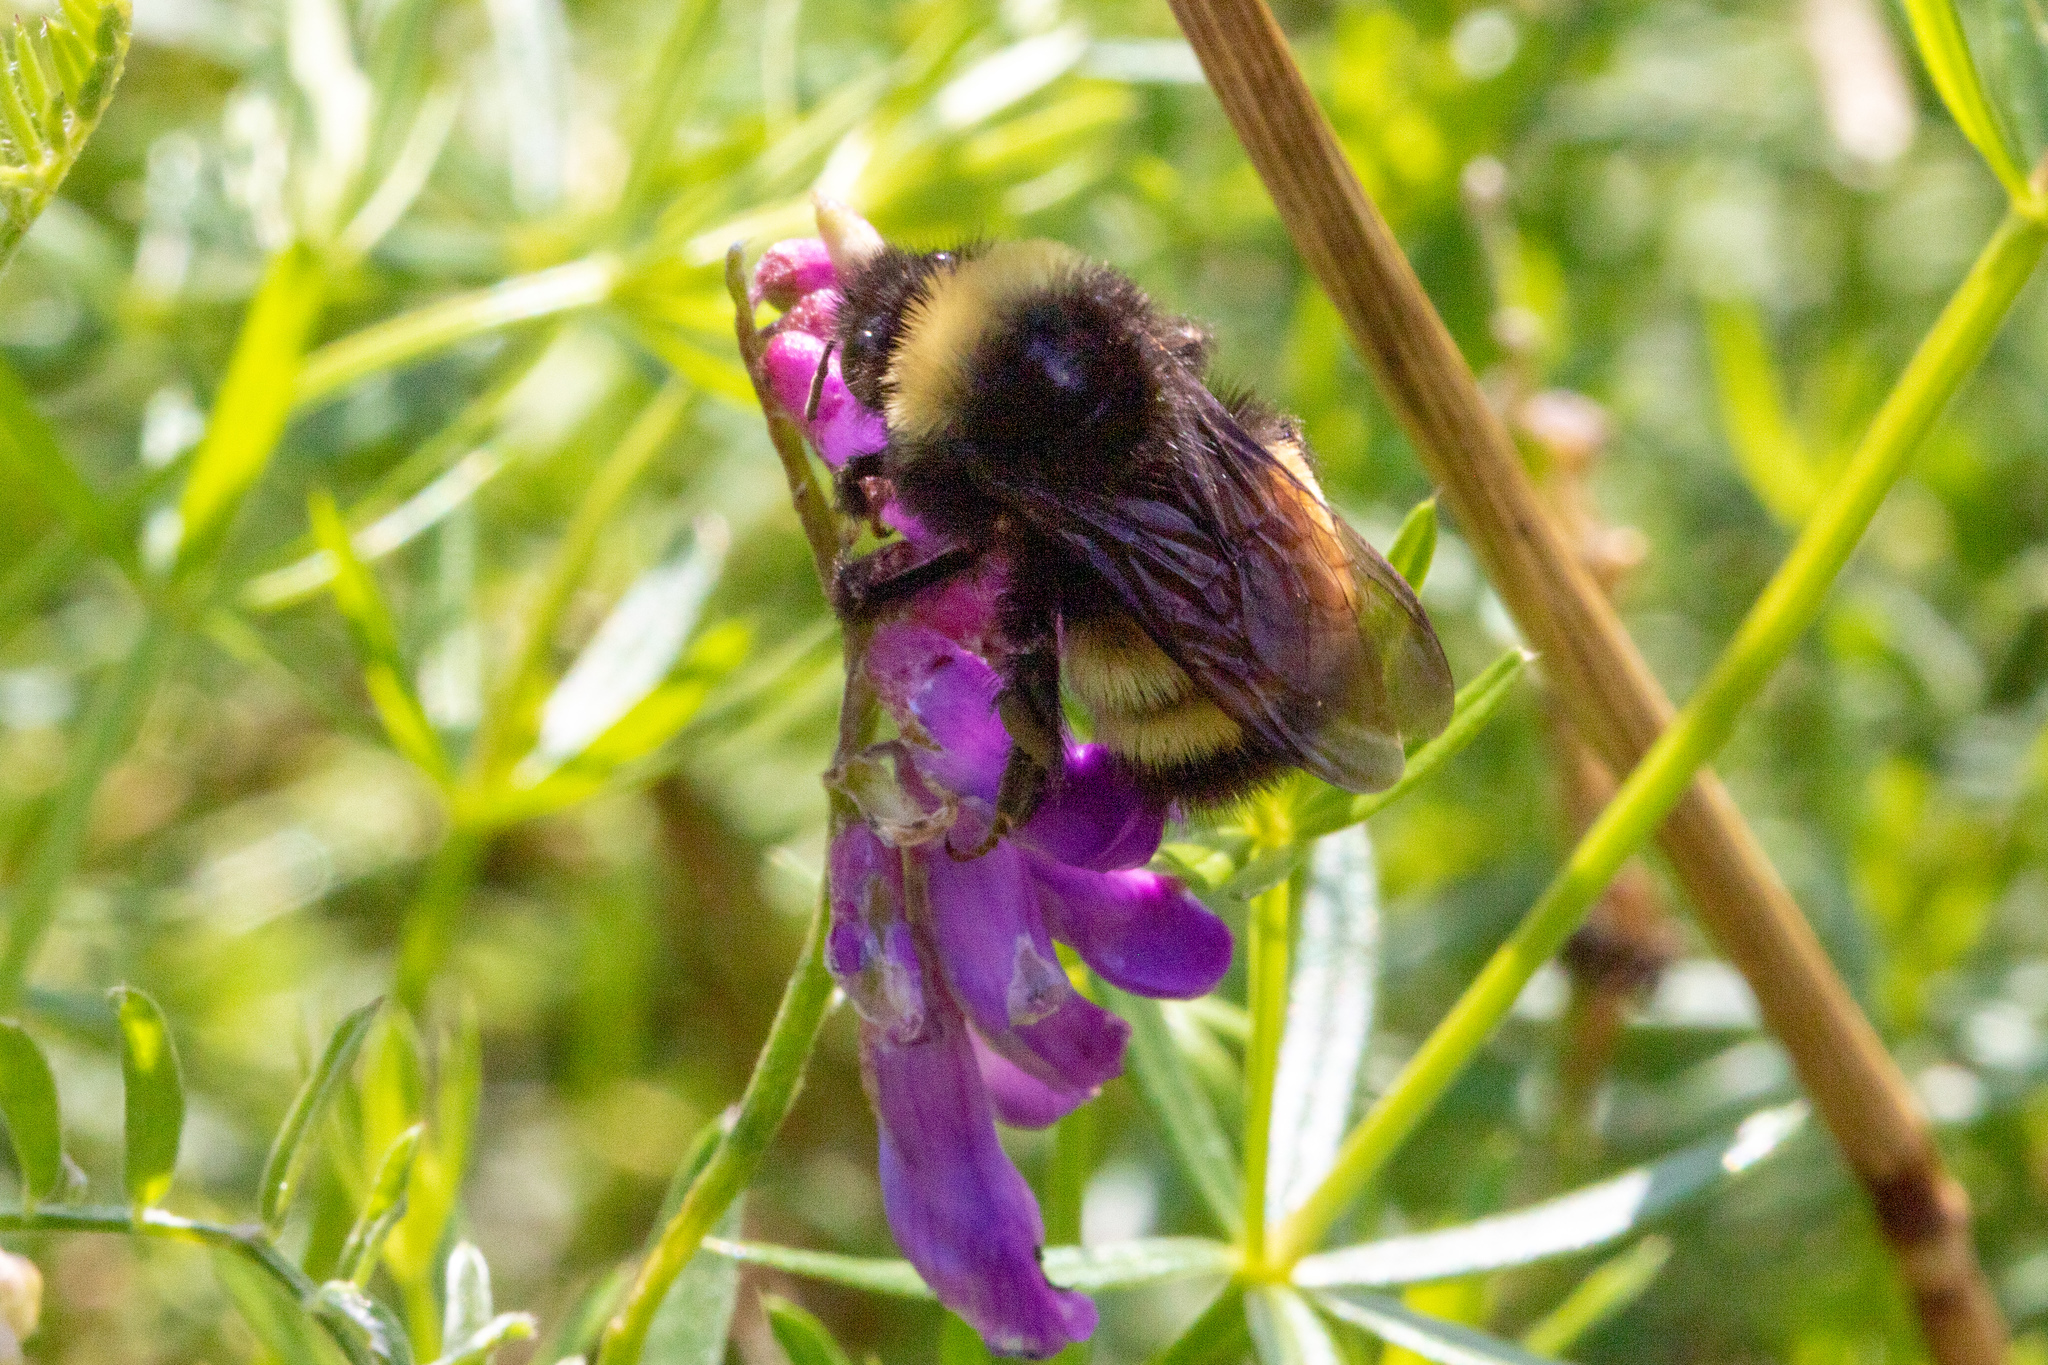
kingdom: Animalia
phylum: Arthropoda
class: Insecta
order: Hymenoptera
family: Apidae
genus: Bombus
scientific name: Bombus terricola
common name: Yellow-banded bumble bee
